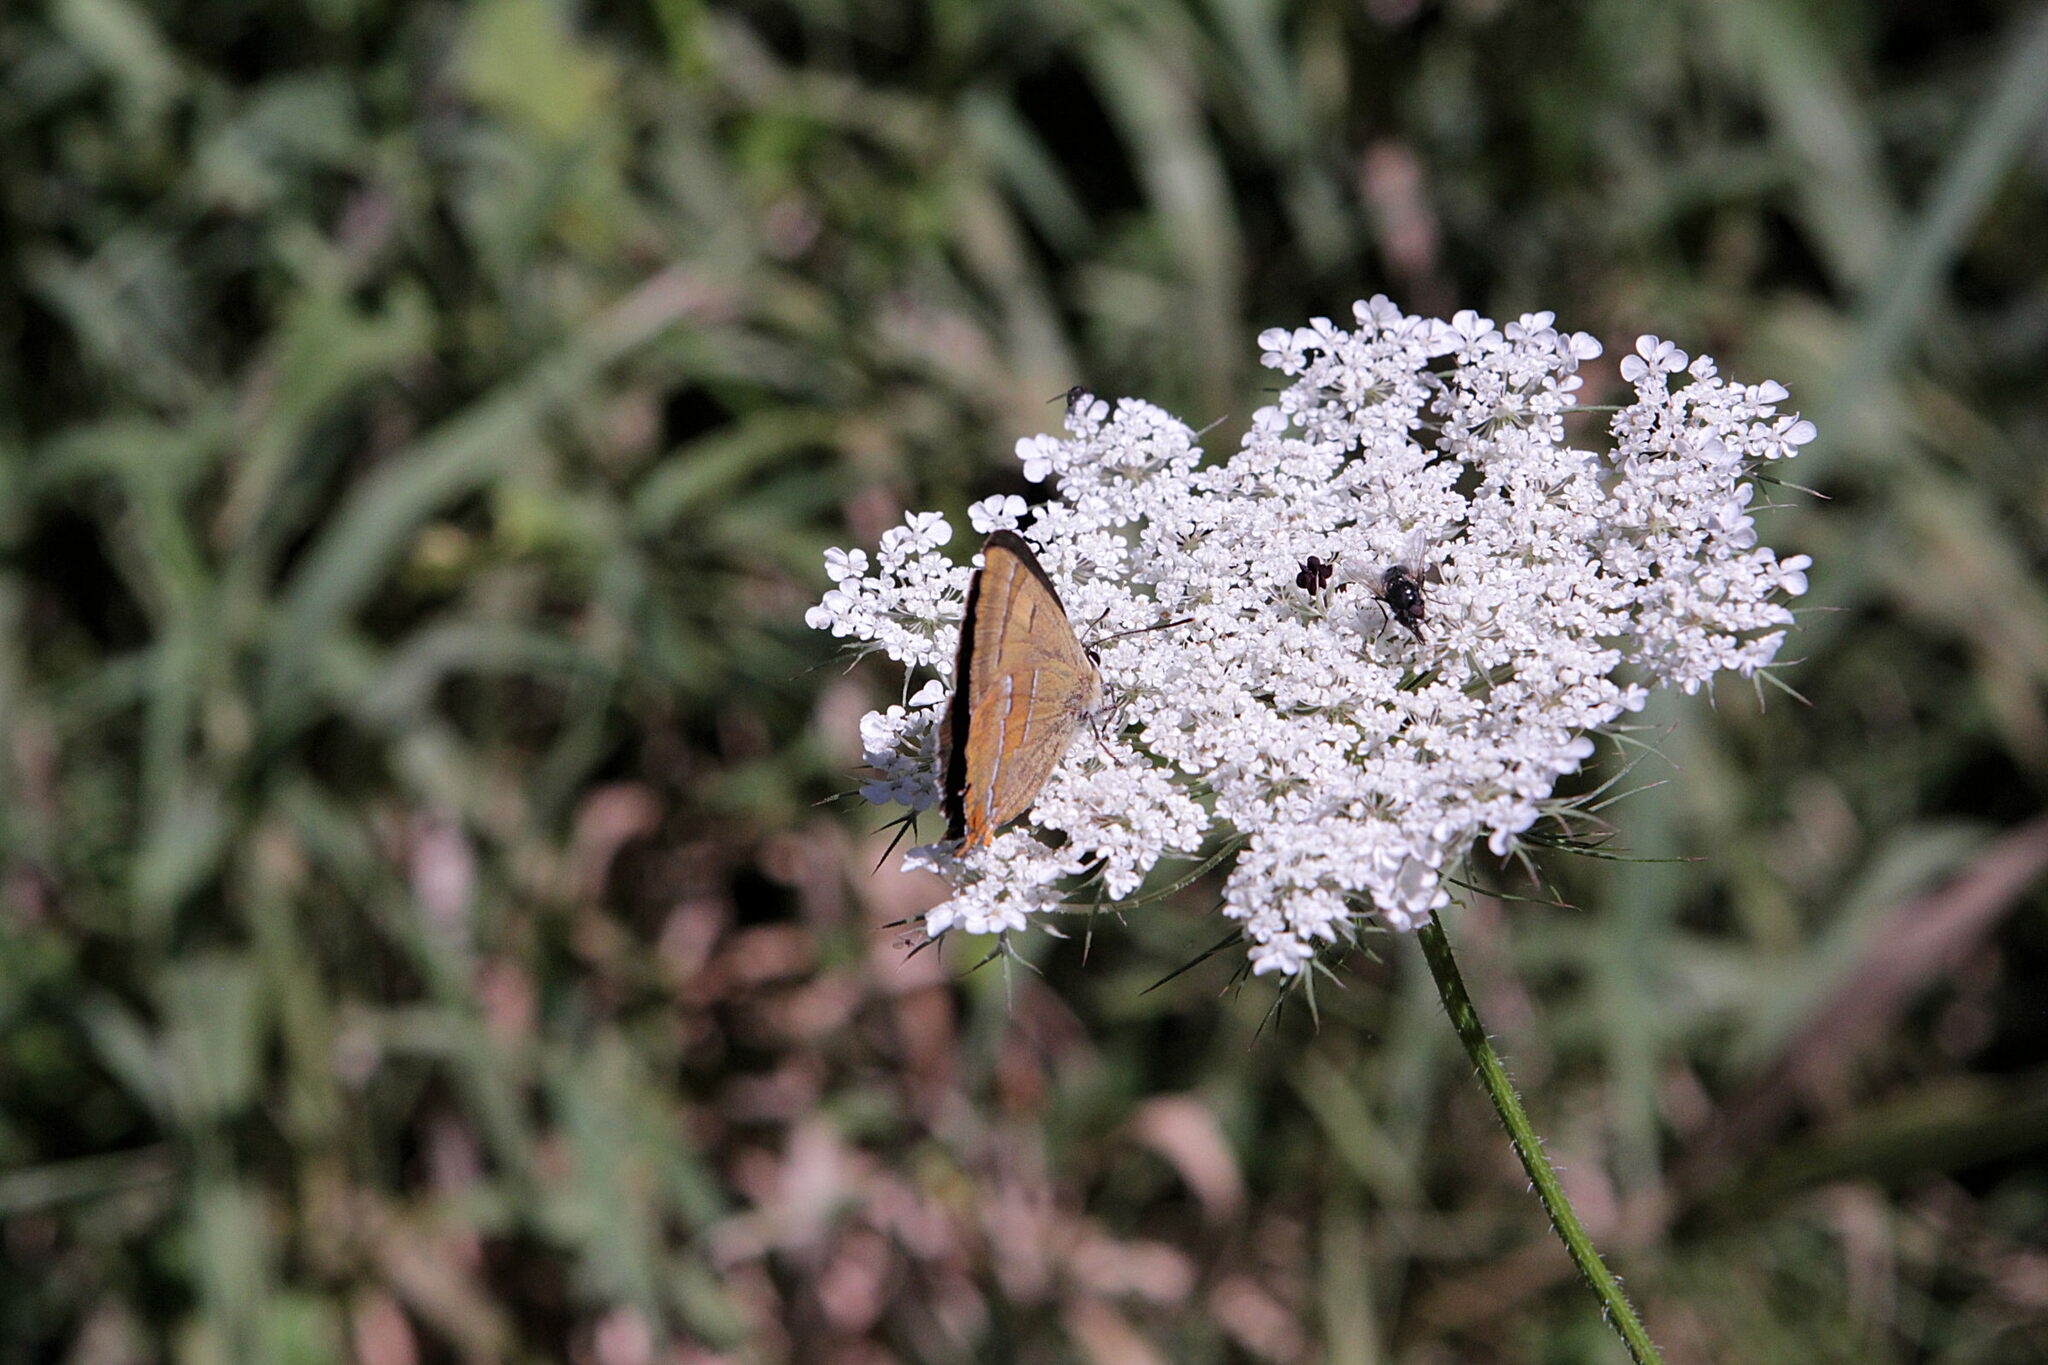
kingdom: Animalia
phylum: Arthropoda
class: Insecta
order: Lepidoptera
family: Lycaenidae
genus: Thecla
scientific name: Thecla betulae
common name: Brown hairstreak
